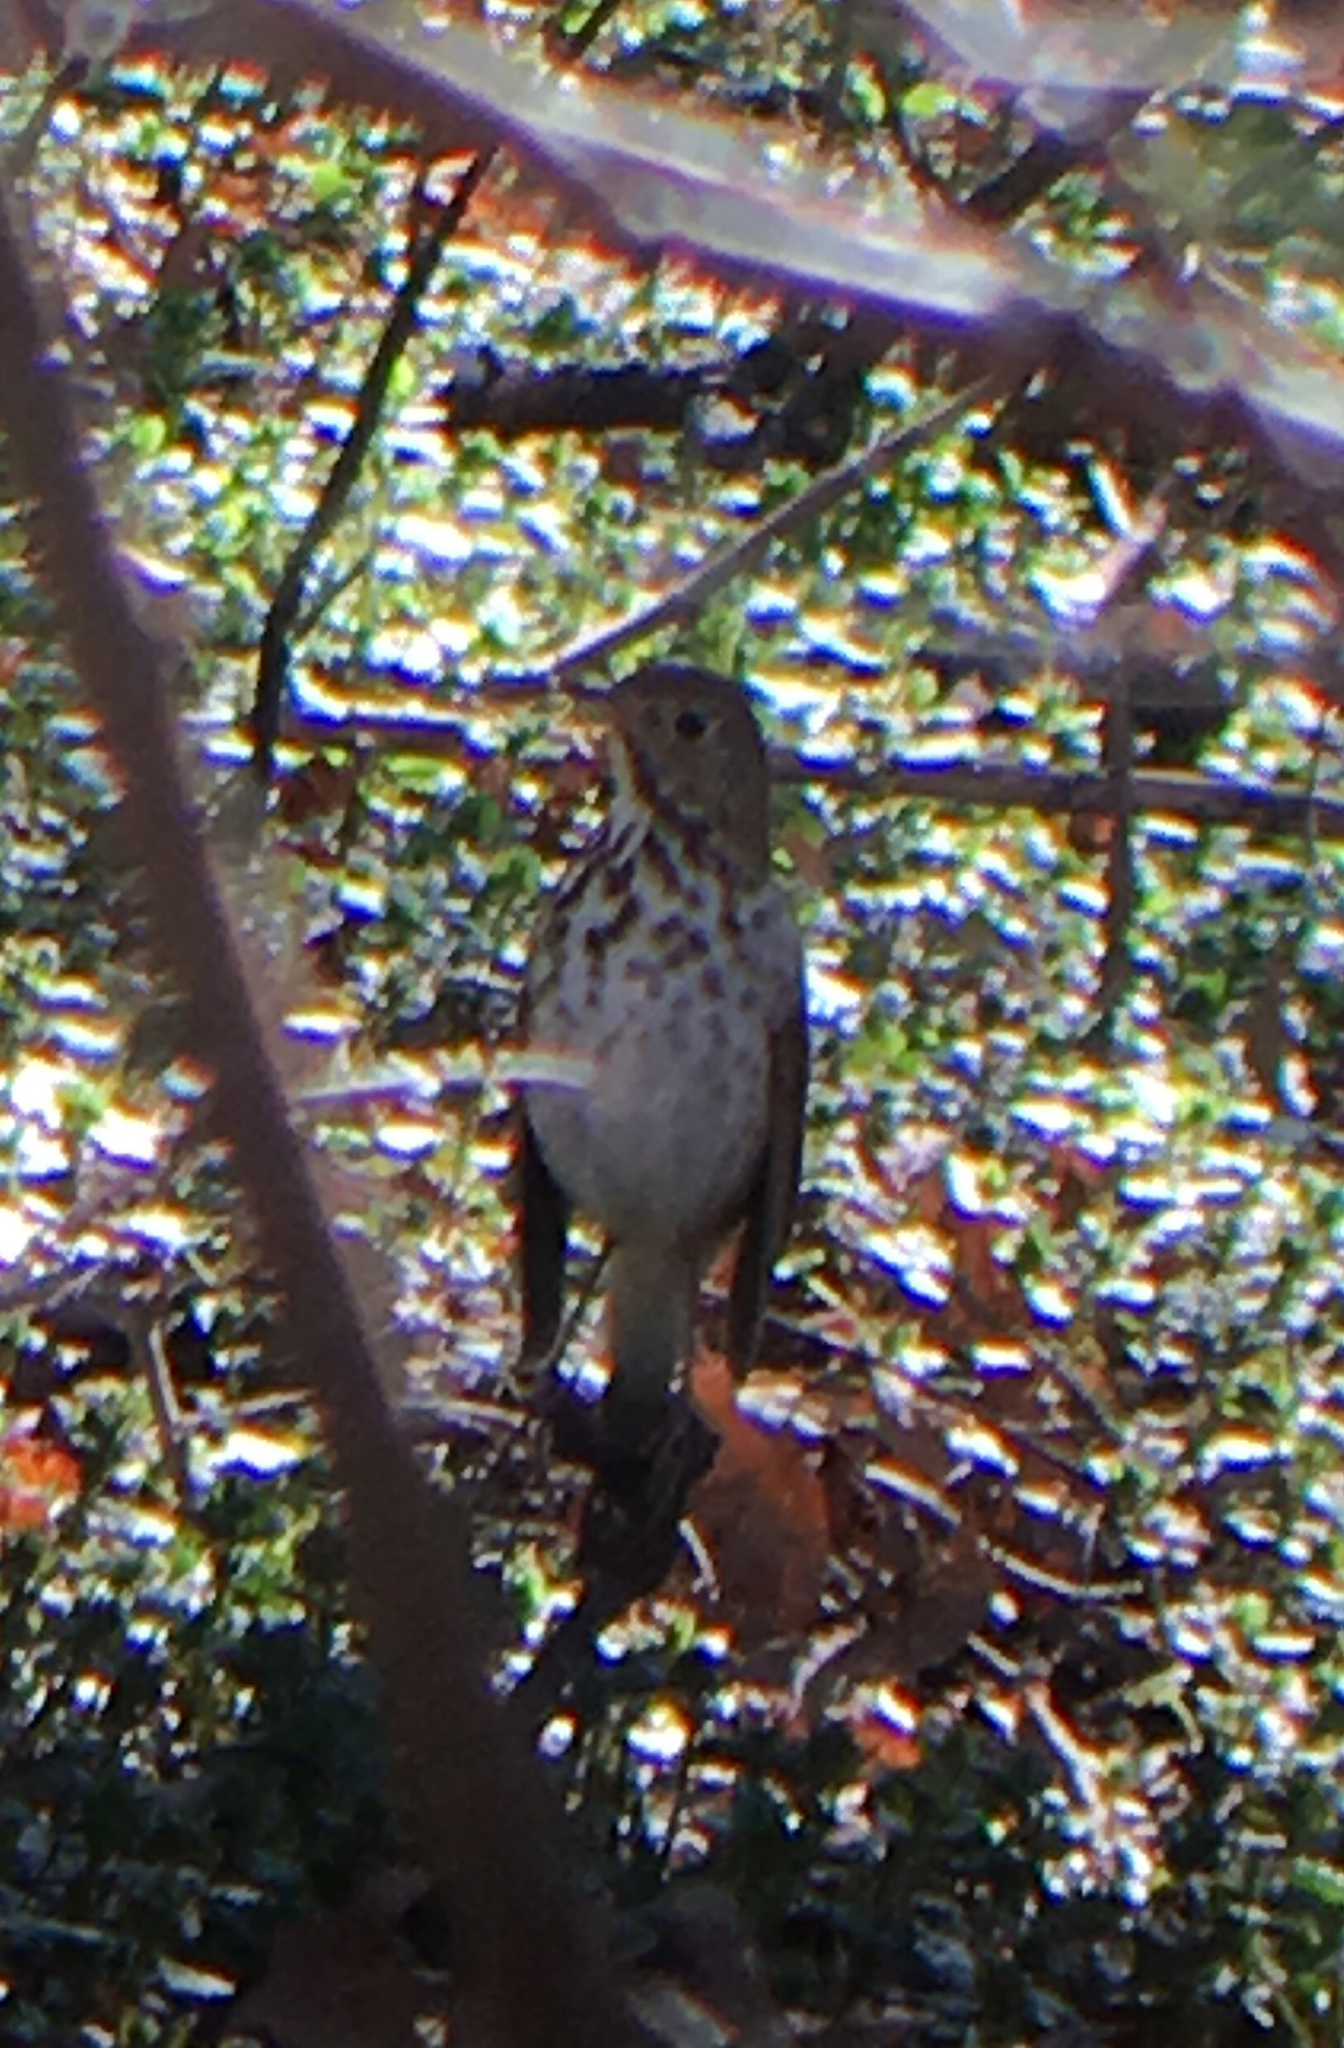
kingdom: Animalia
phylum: Chordata
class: Aves
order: Passeriformes
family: Turdidae
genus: Catharus
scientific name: Catharus guttatus
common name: Hermit thrush
